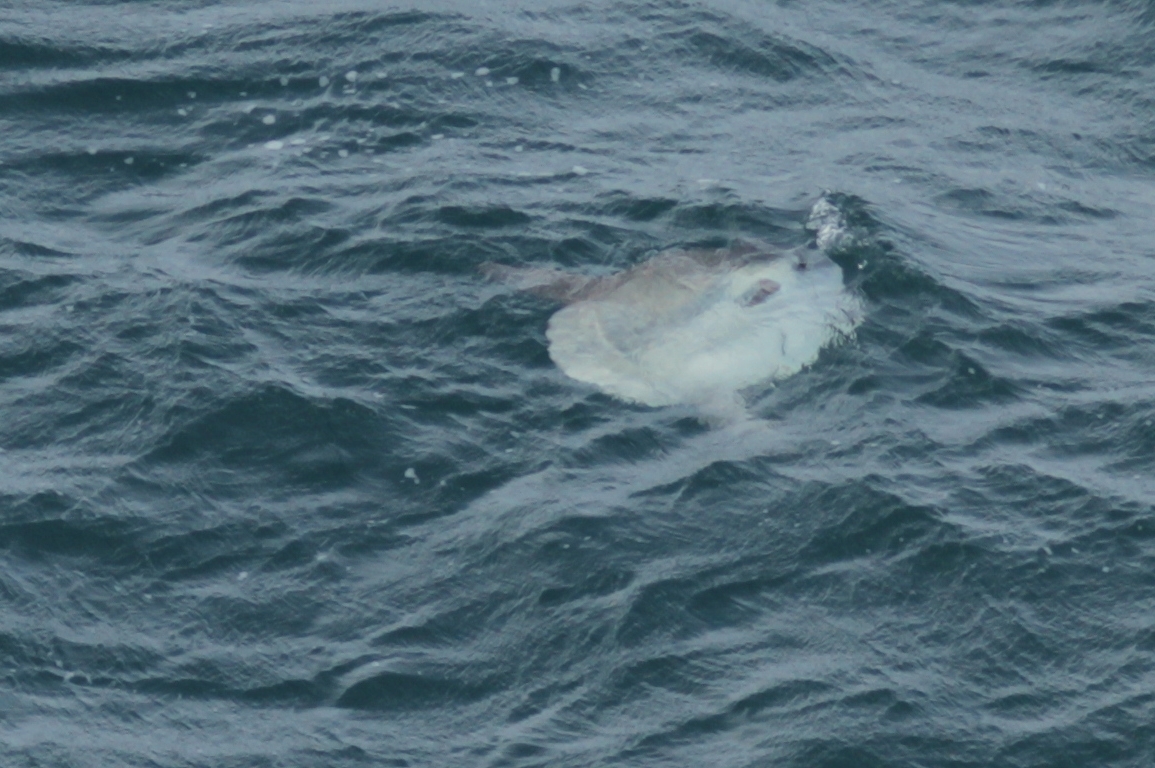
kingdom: Animalia
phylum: Chordata
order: Tetraodontiformes
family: Molidae
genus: Mola
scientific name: Mola mola
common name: Ocean sunfish
